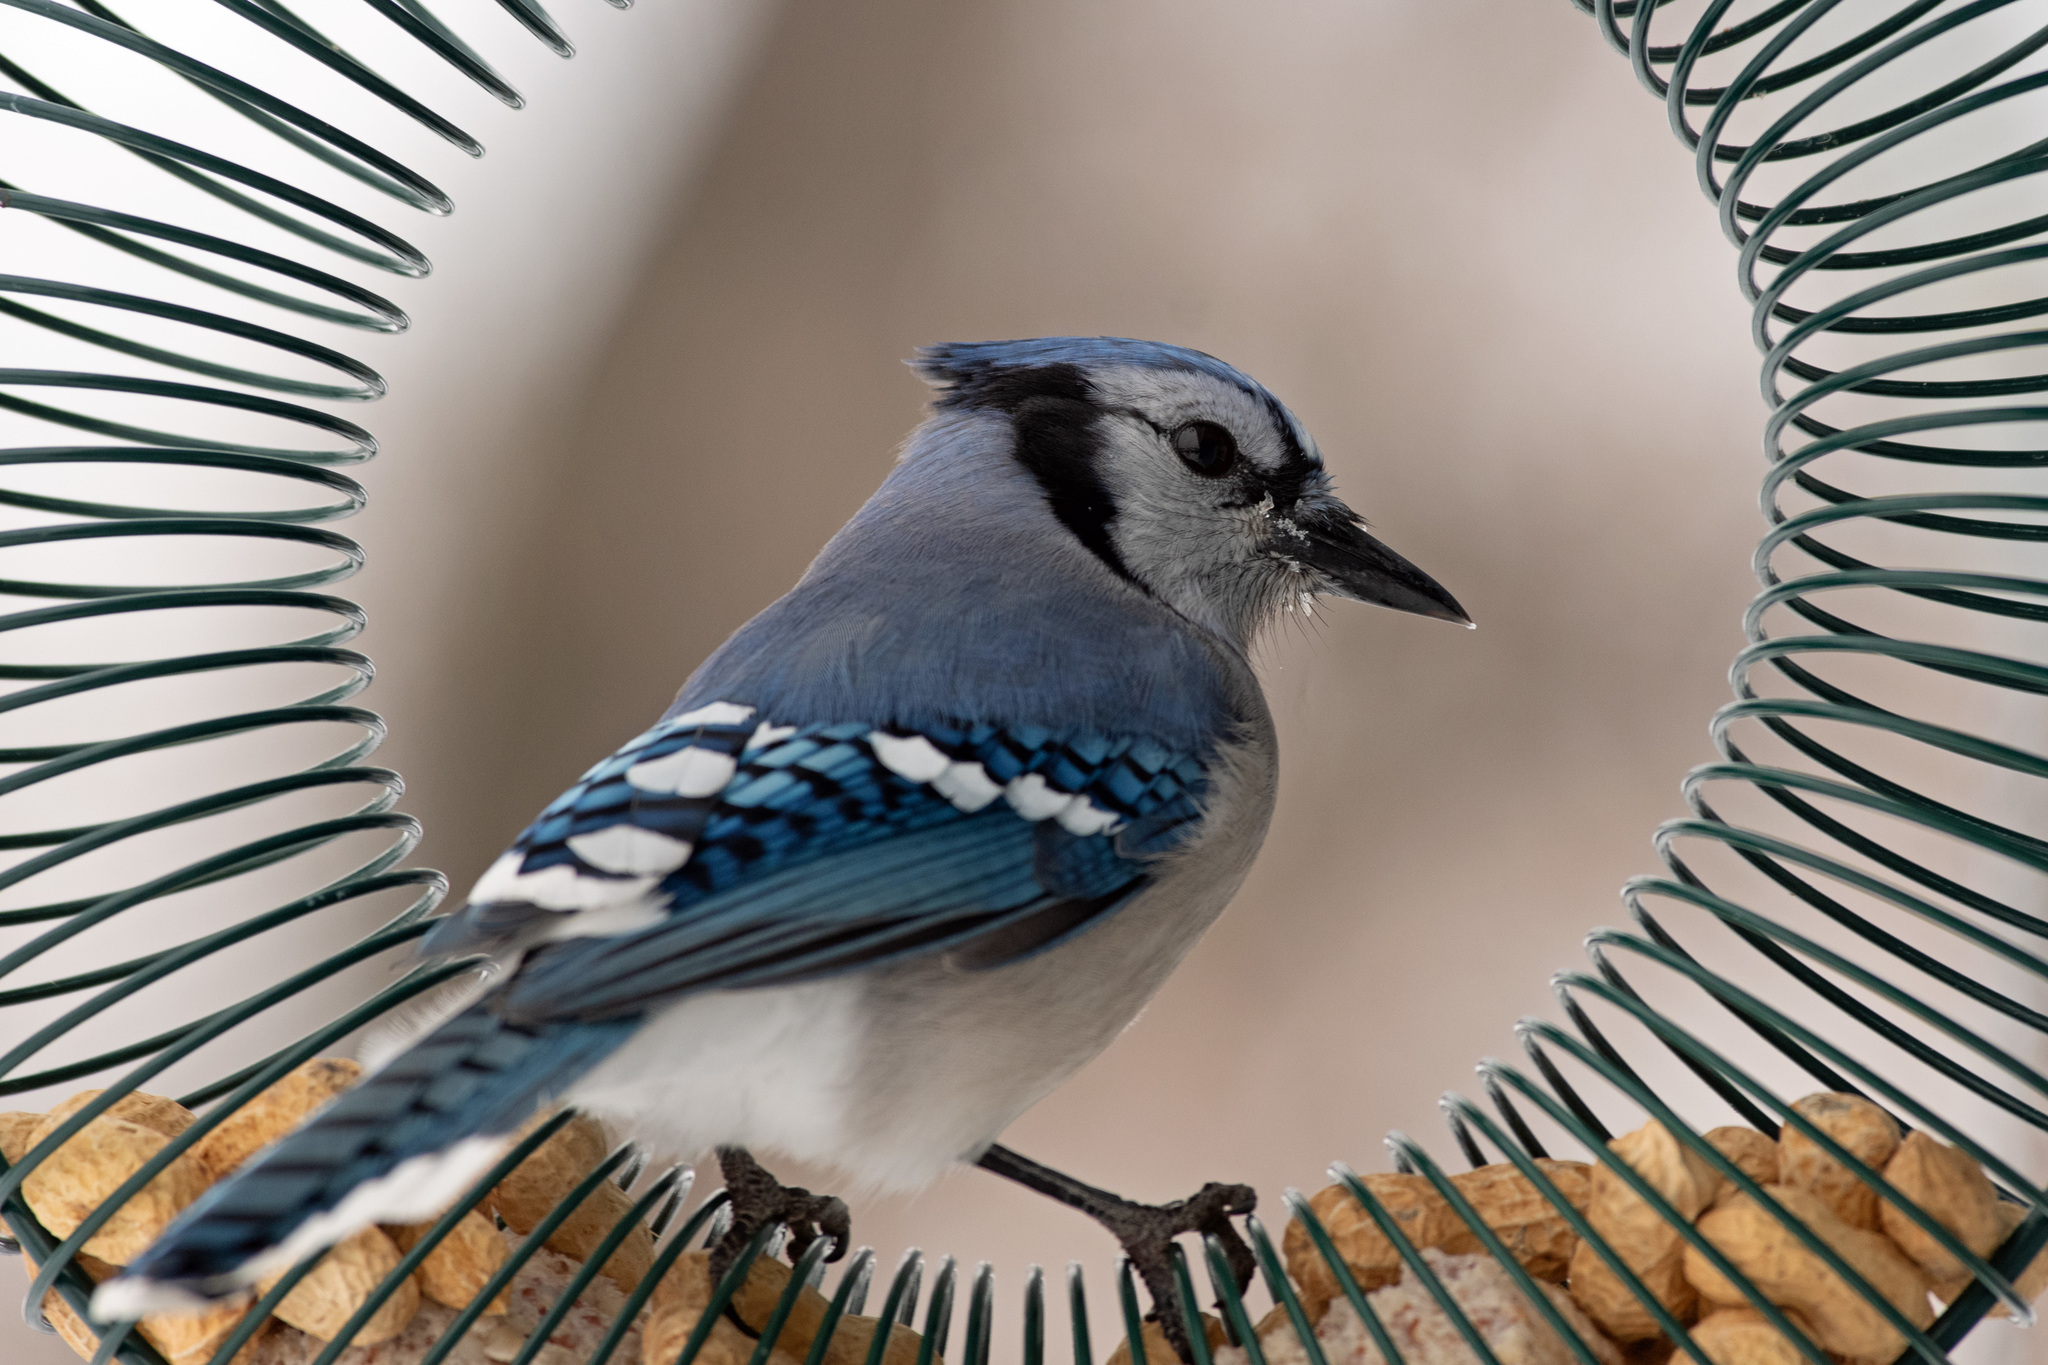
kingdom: Animalia
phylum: Chordata
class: Aves
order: Passeriformes
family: Corvidae
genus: Cyanocitta
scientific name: Cyanocitta cristata
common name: Blue jay
